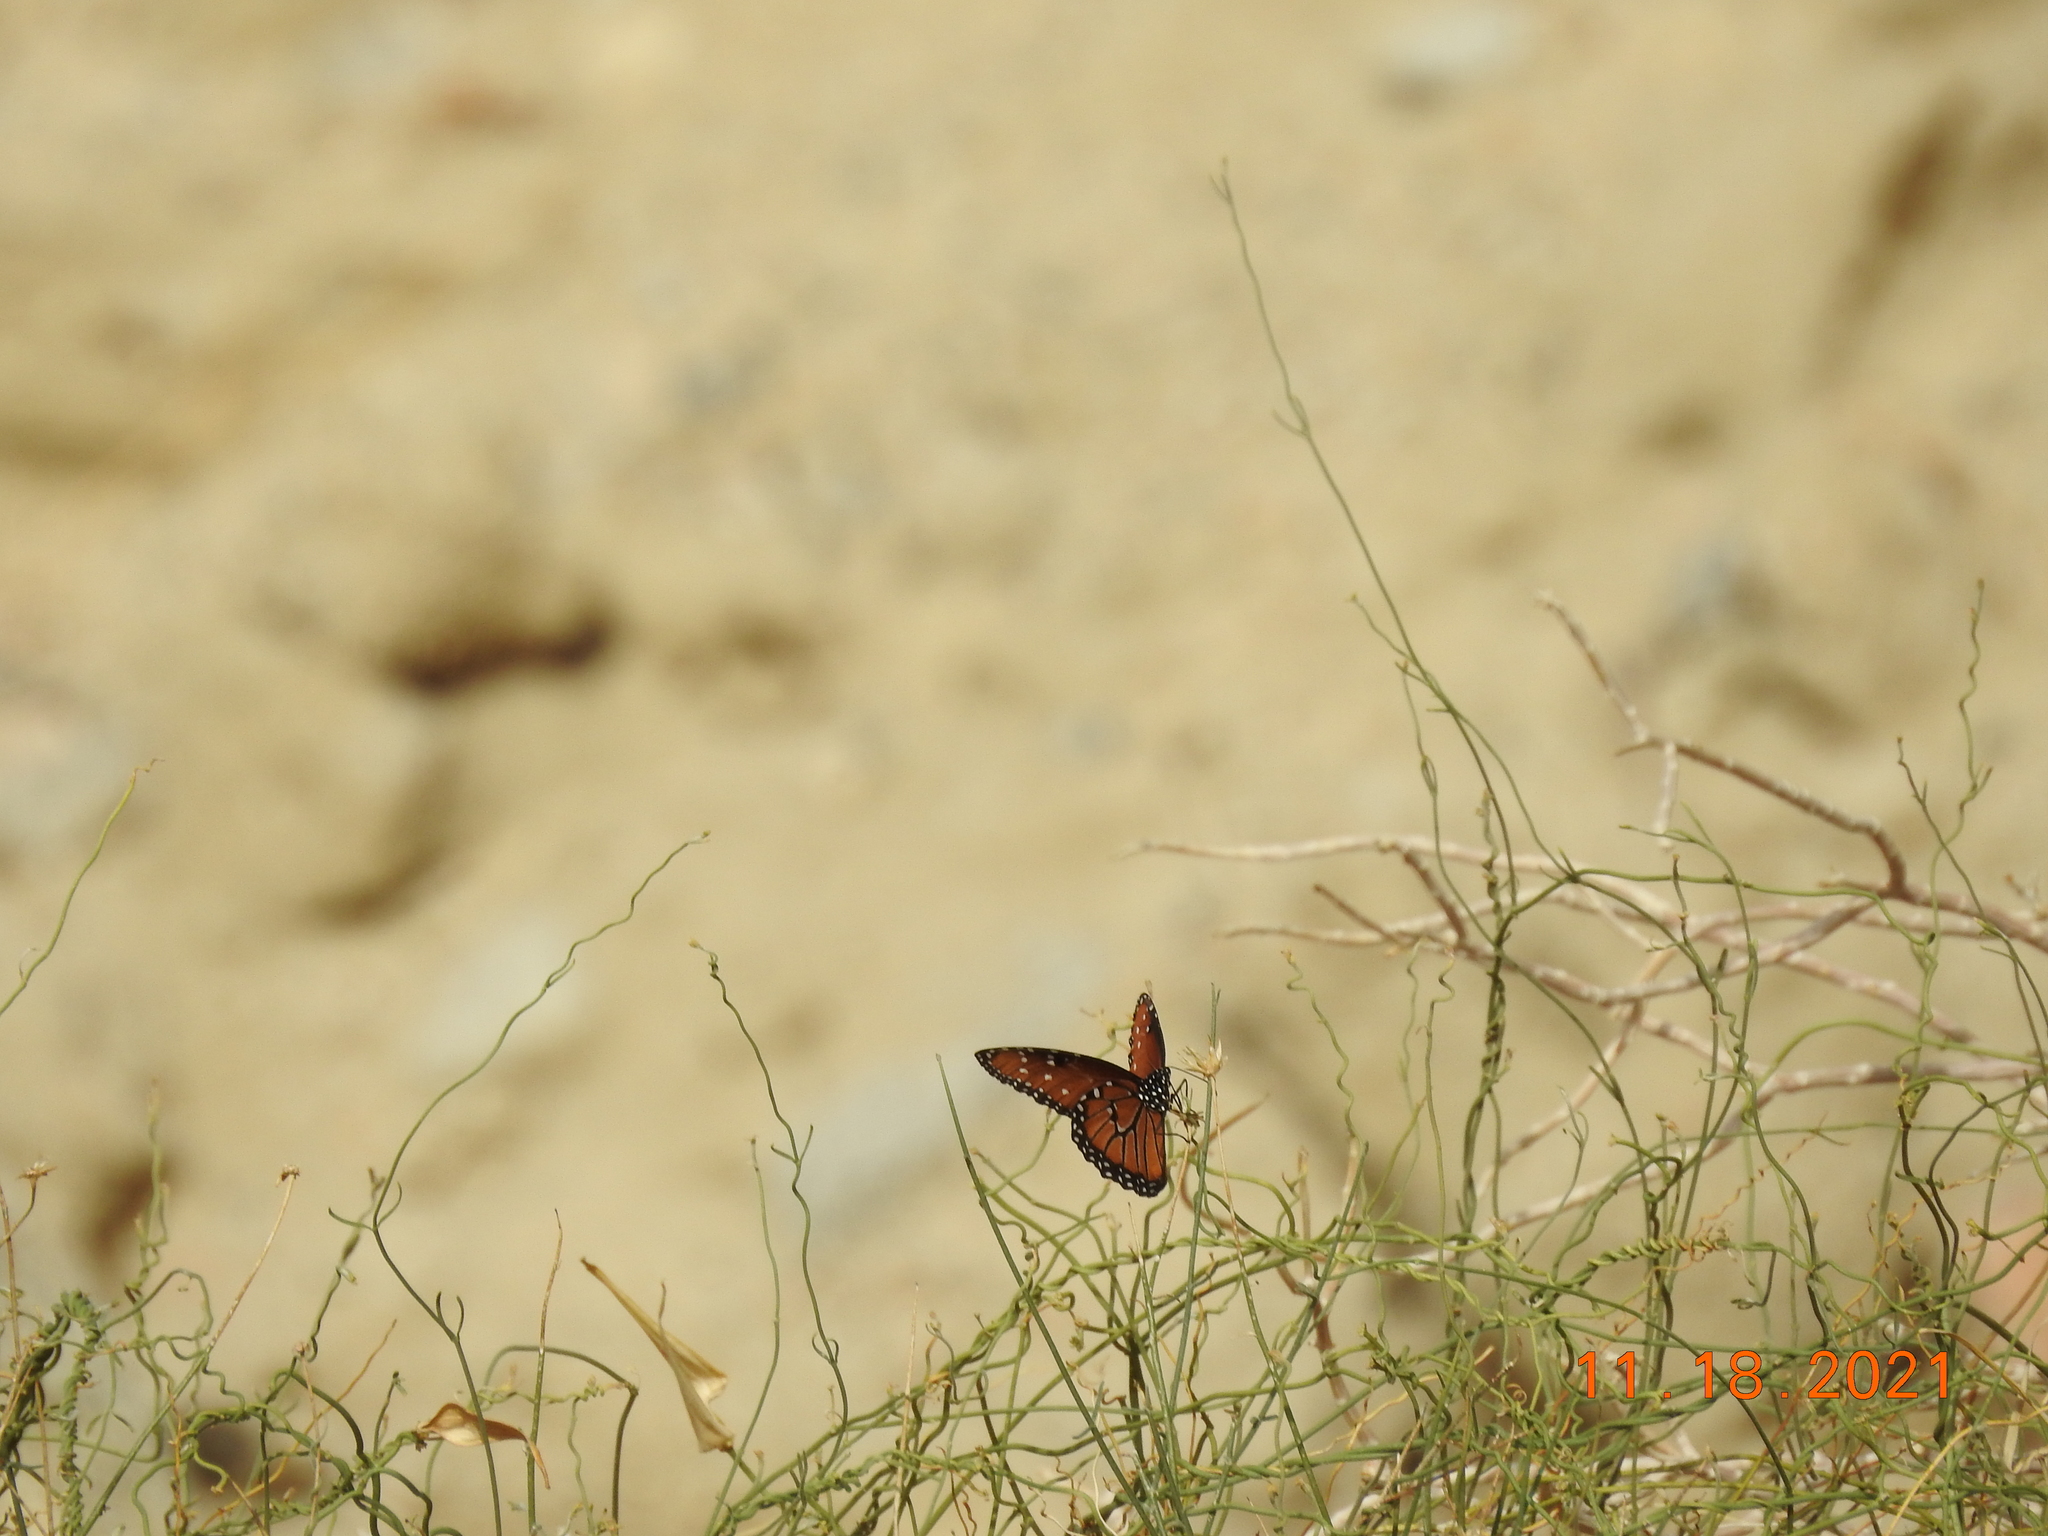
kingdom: Animalia
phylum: Arthropoda
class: Insecta
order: Lepidoptera
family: Nymphalidae
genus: Danaus
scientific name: Danaus gilippus
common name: Queen
